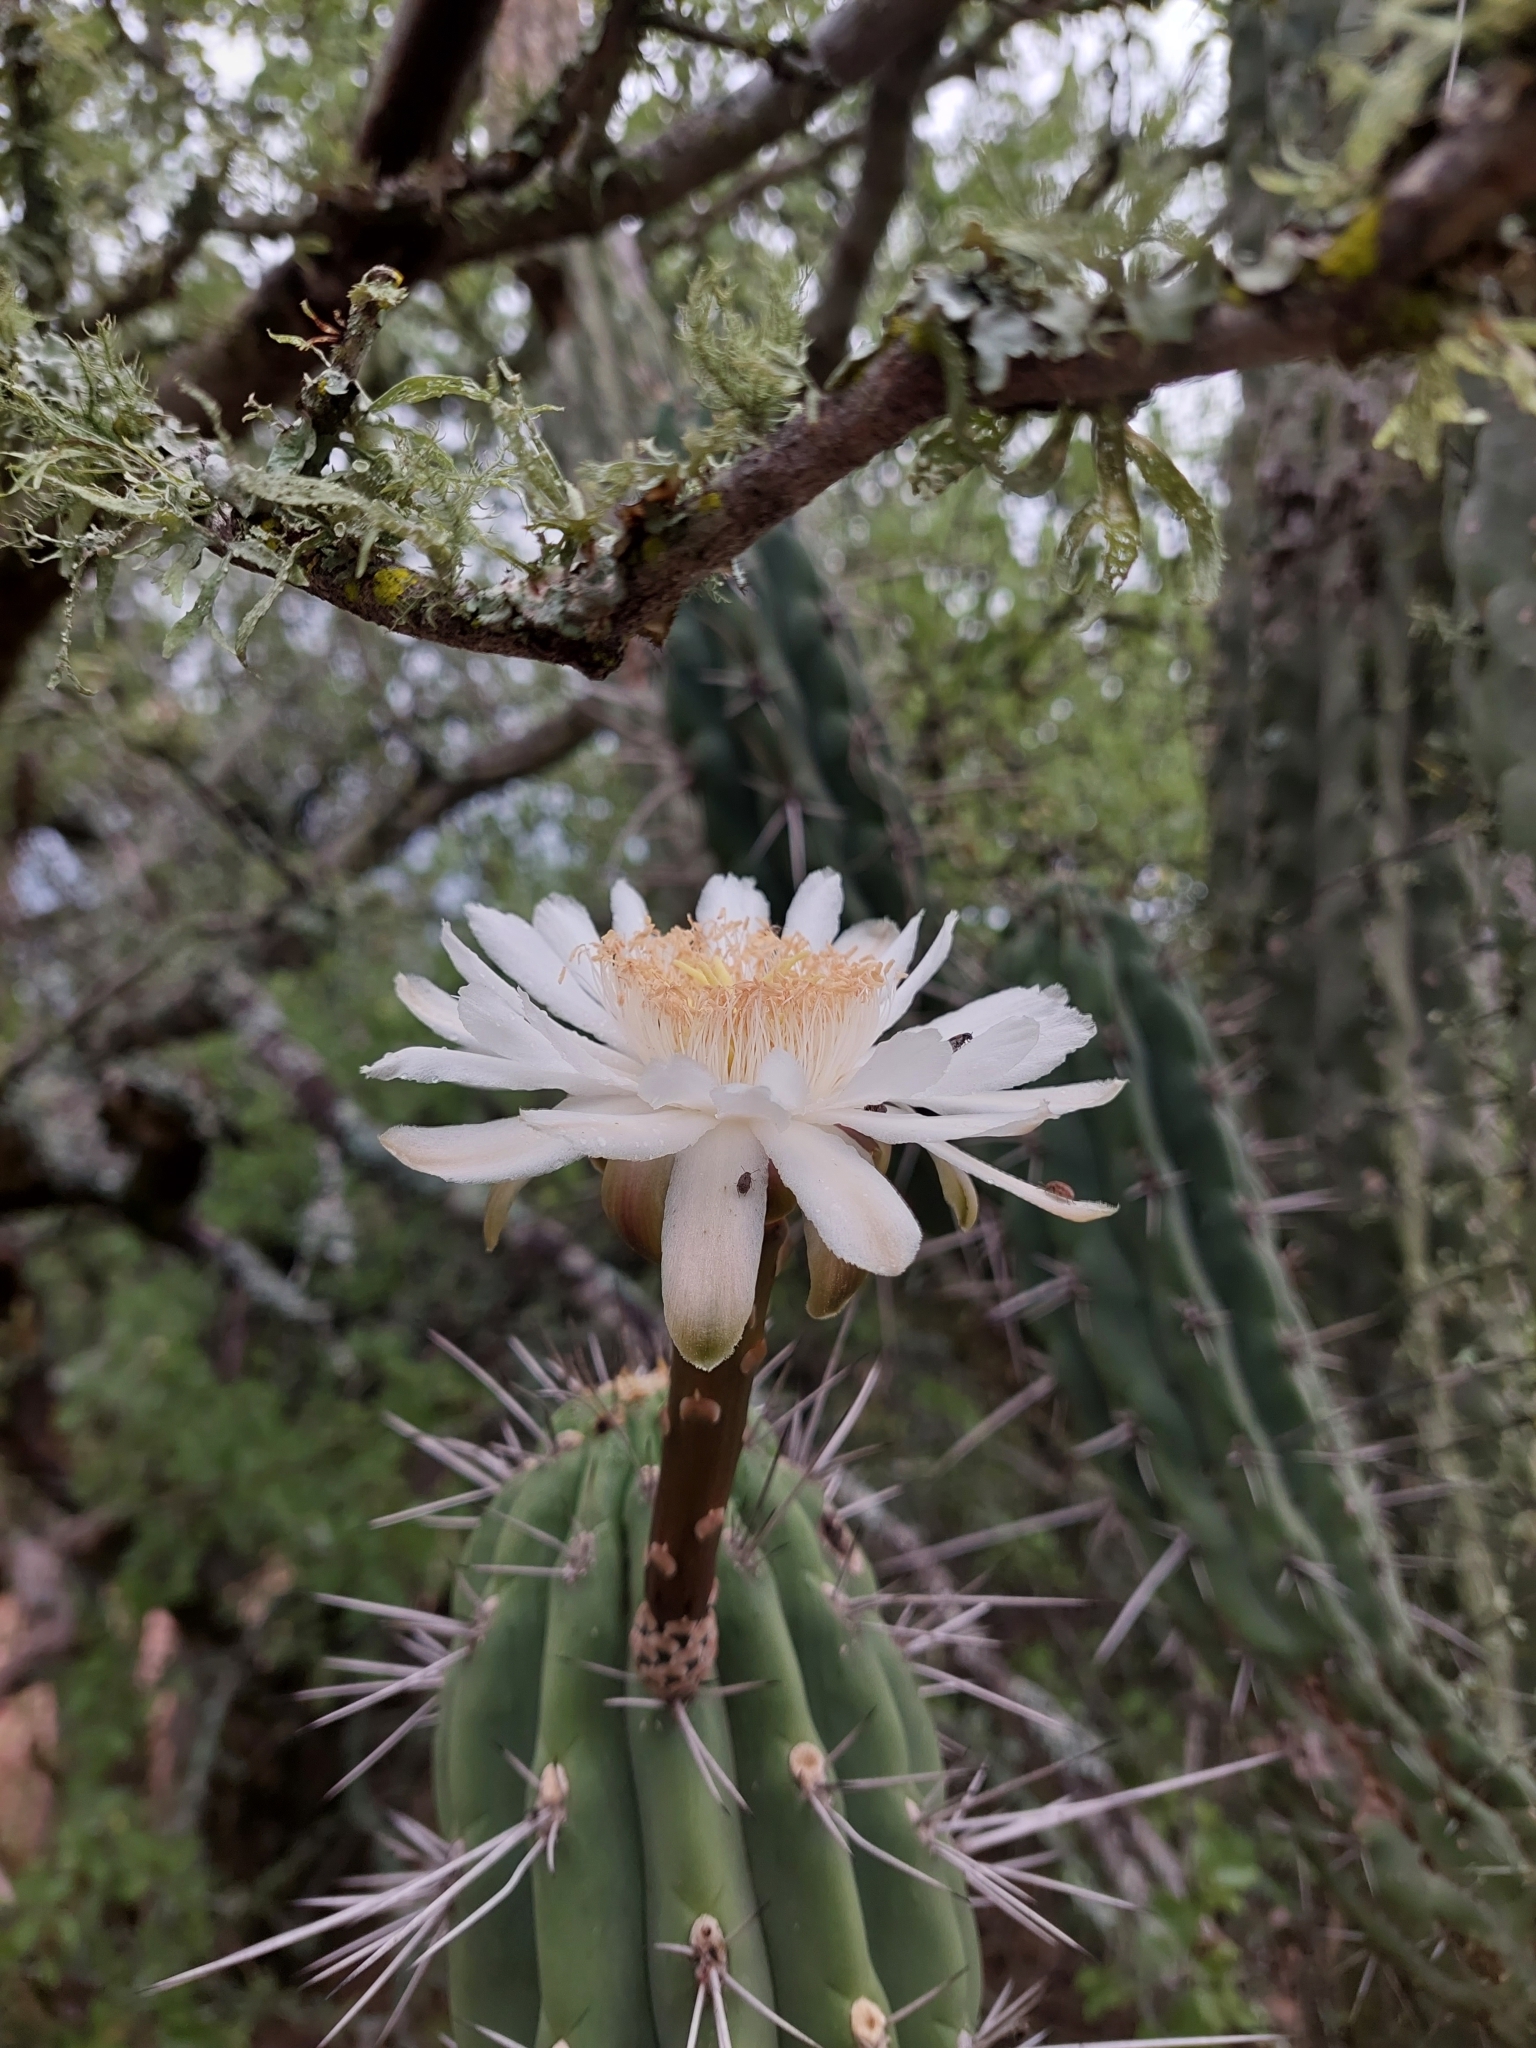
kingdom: Plantae
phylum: Tracheophyta
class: Magnoliopsida
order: Caryophyllales
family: Cactaceae
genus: Stetsonia
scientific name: Stetsonia coryne
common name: Toothpick cactus
